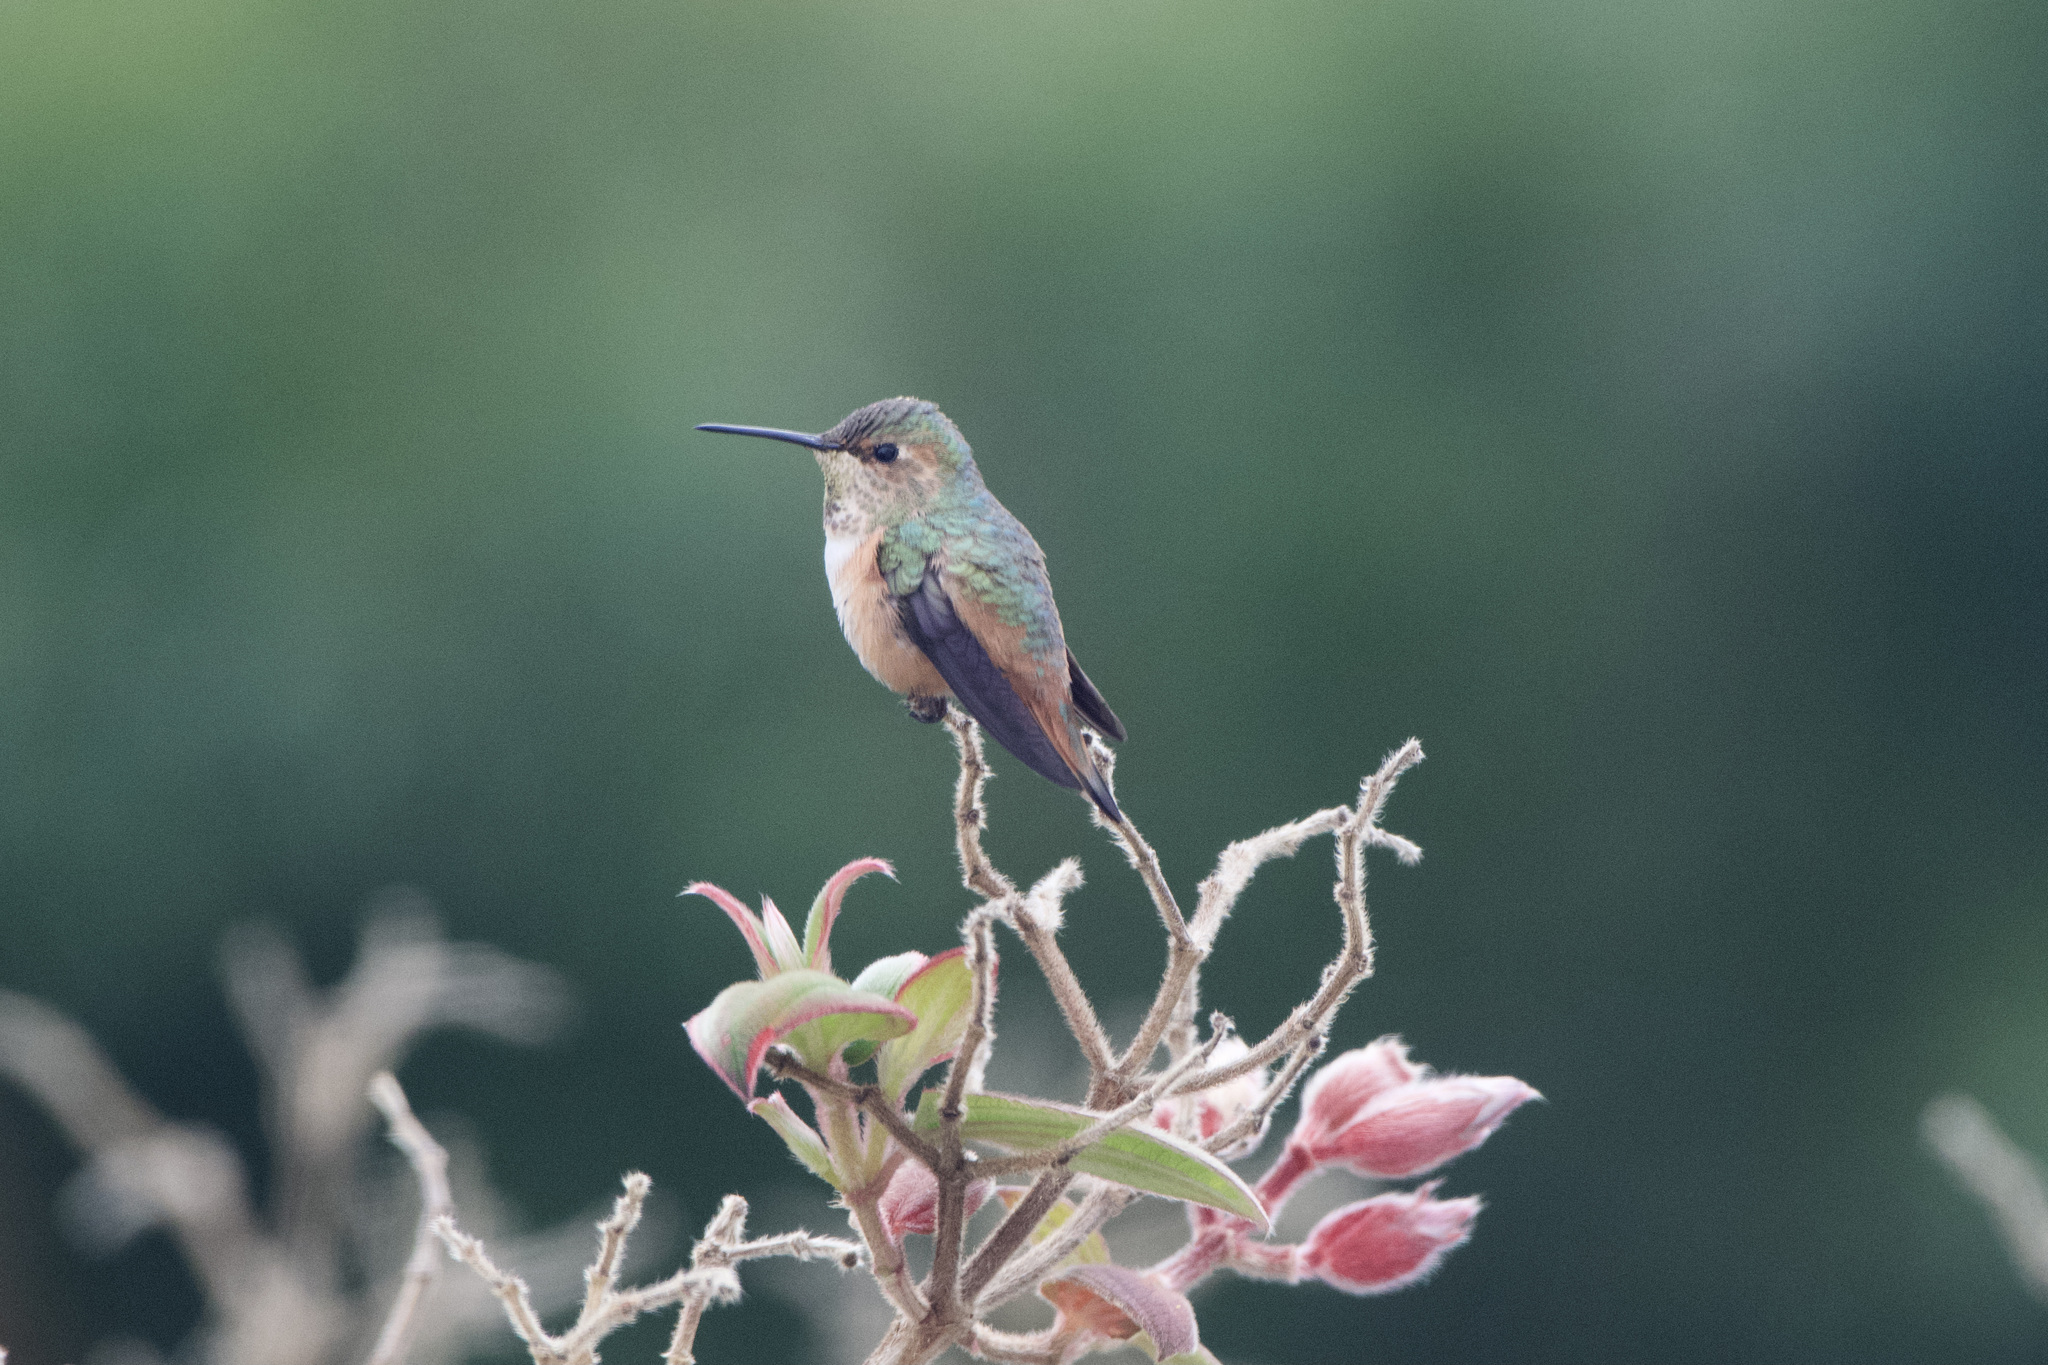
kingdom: Animalia
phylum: Chordata
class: Aves
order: Apodiformes
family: Trochilidae
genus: Selasphorus
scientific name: Selasphorus sasin
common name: Allen's hummingbird
